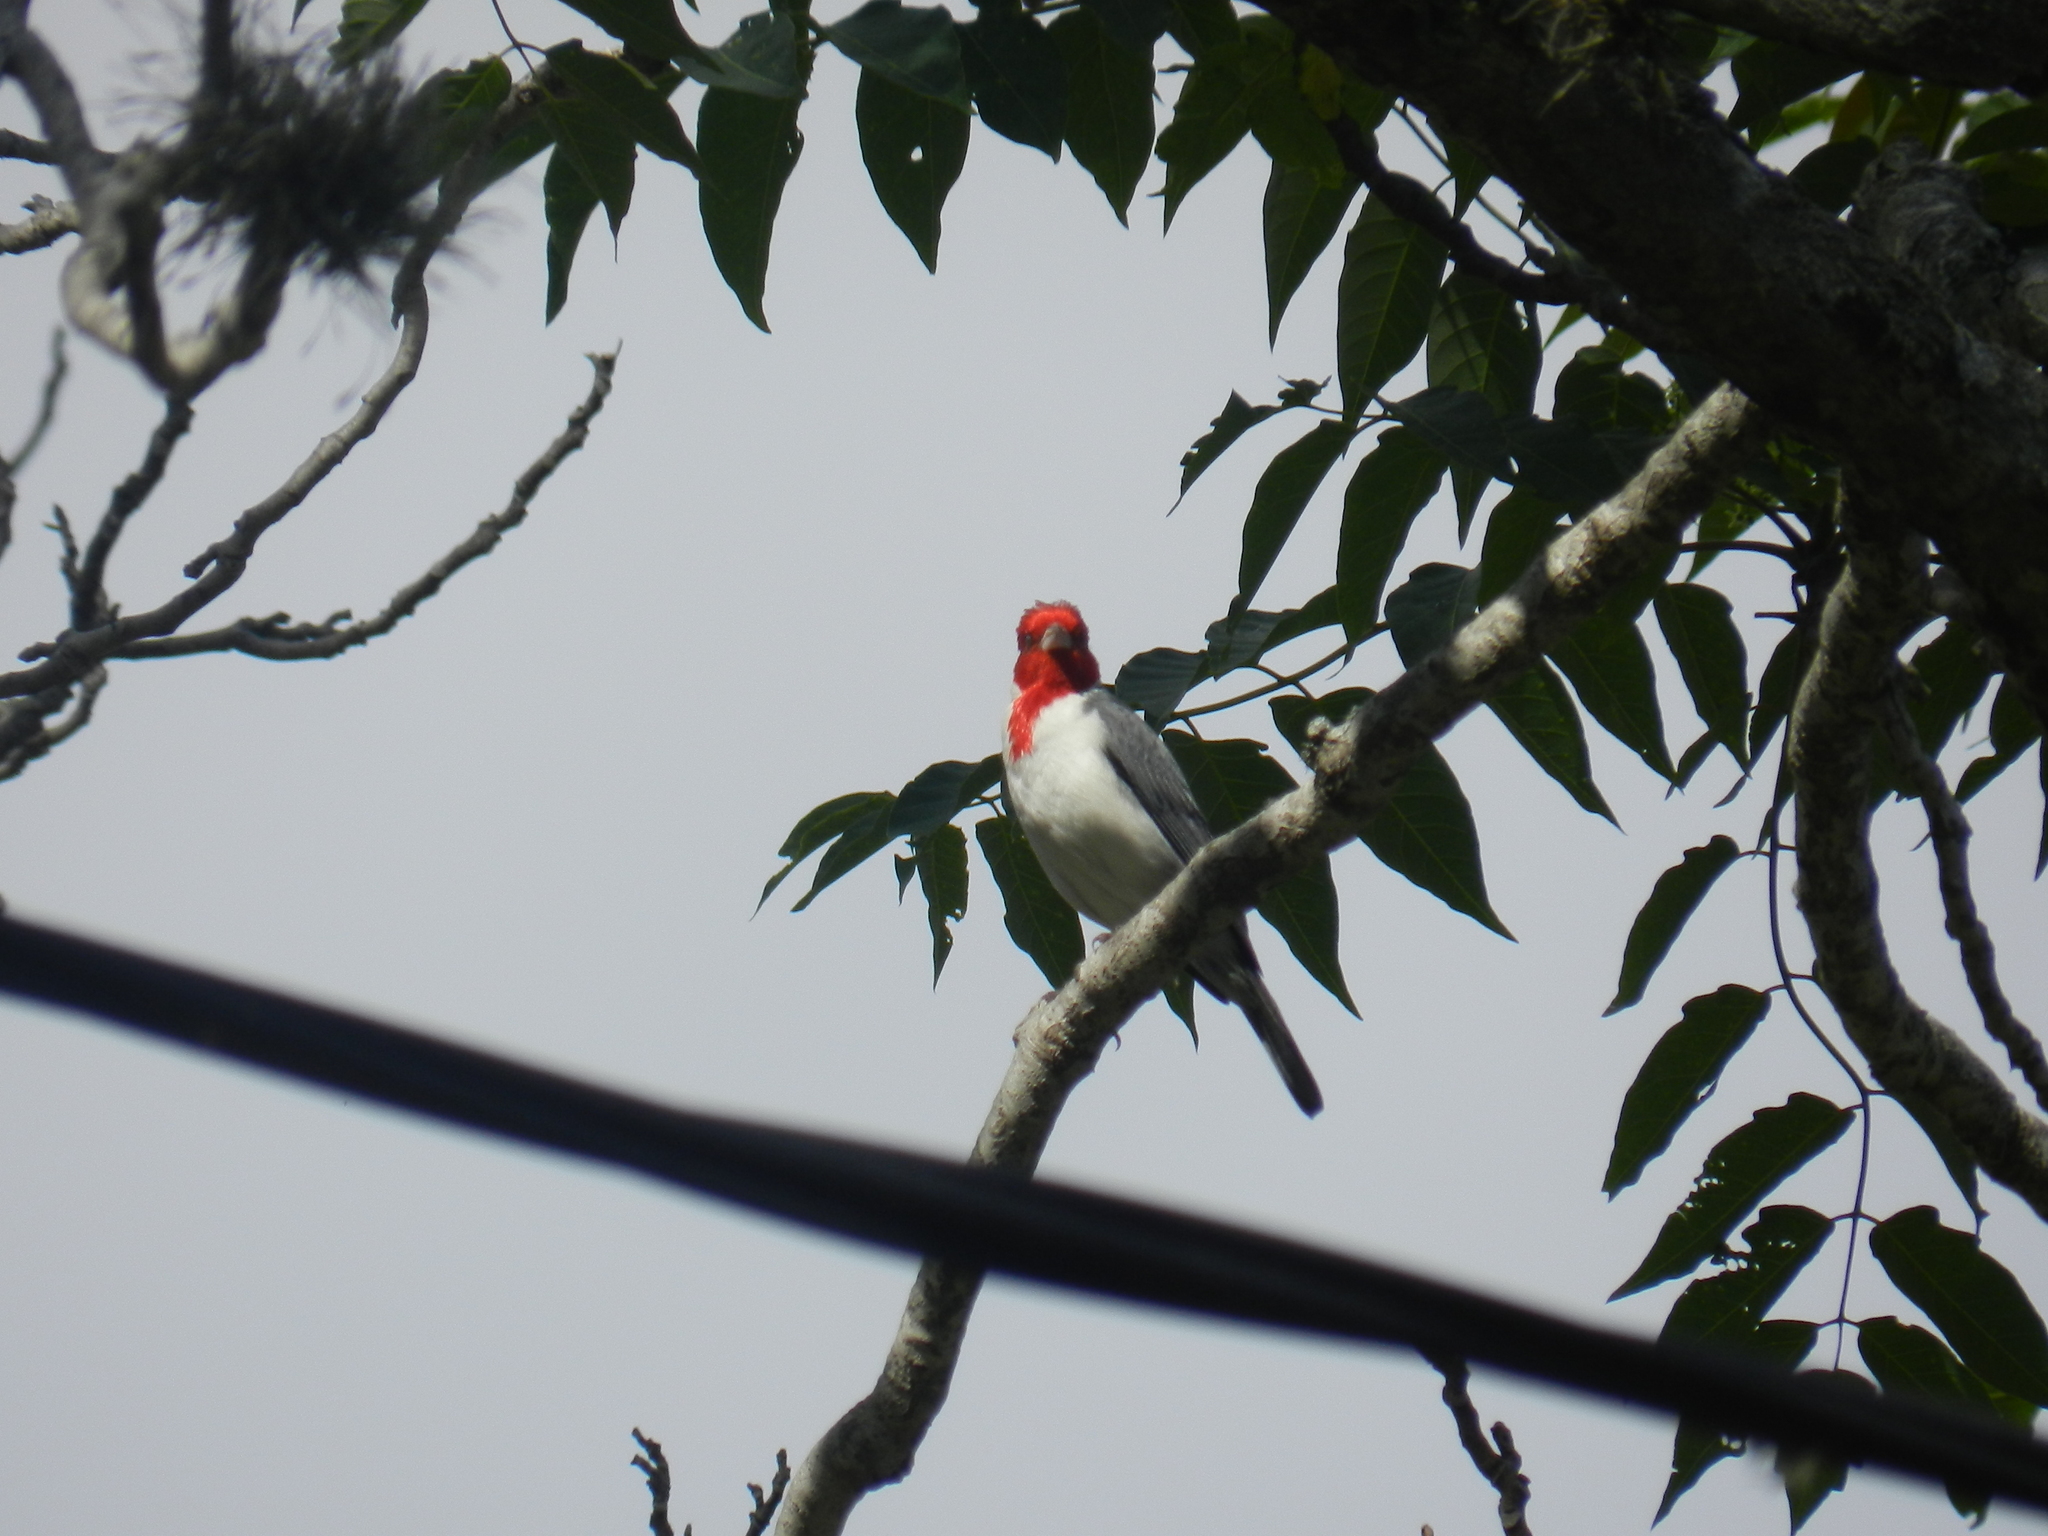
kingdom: Animalia
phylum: Chordata
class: Aves
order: Passeriformes
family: Thraupidae
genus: Paroaria
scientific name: Paroaria coronata
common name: Red-crested cardinal
